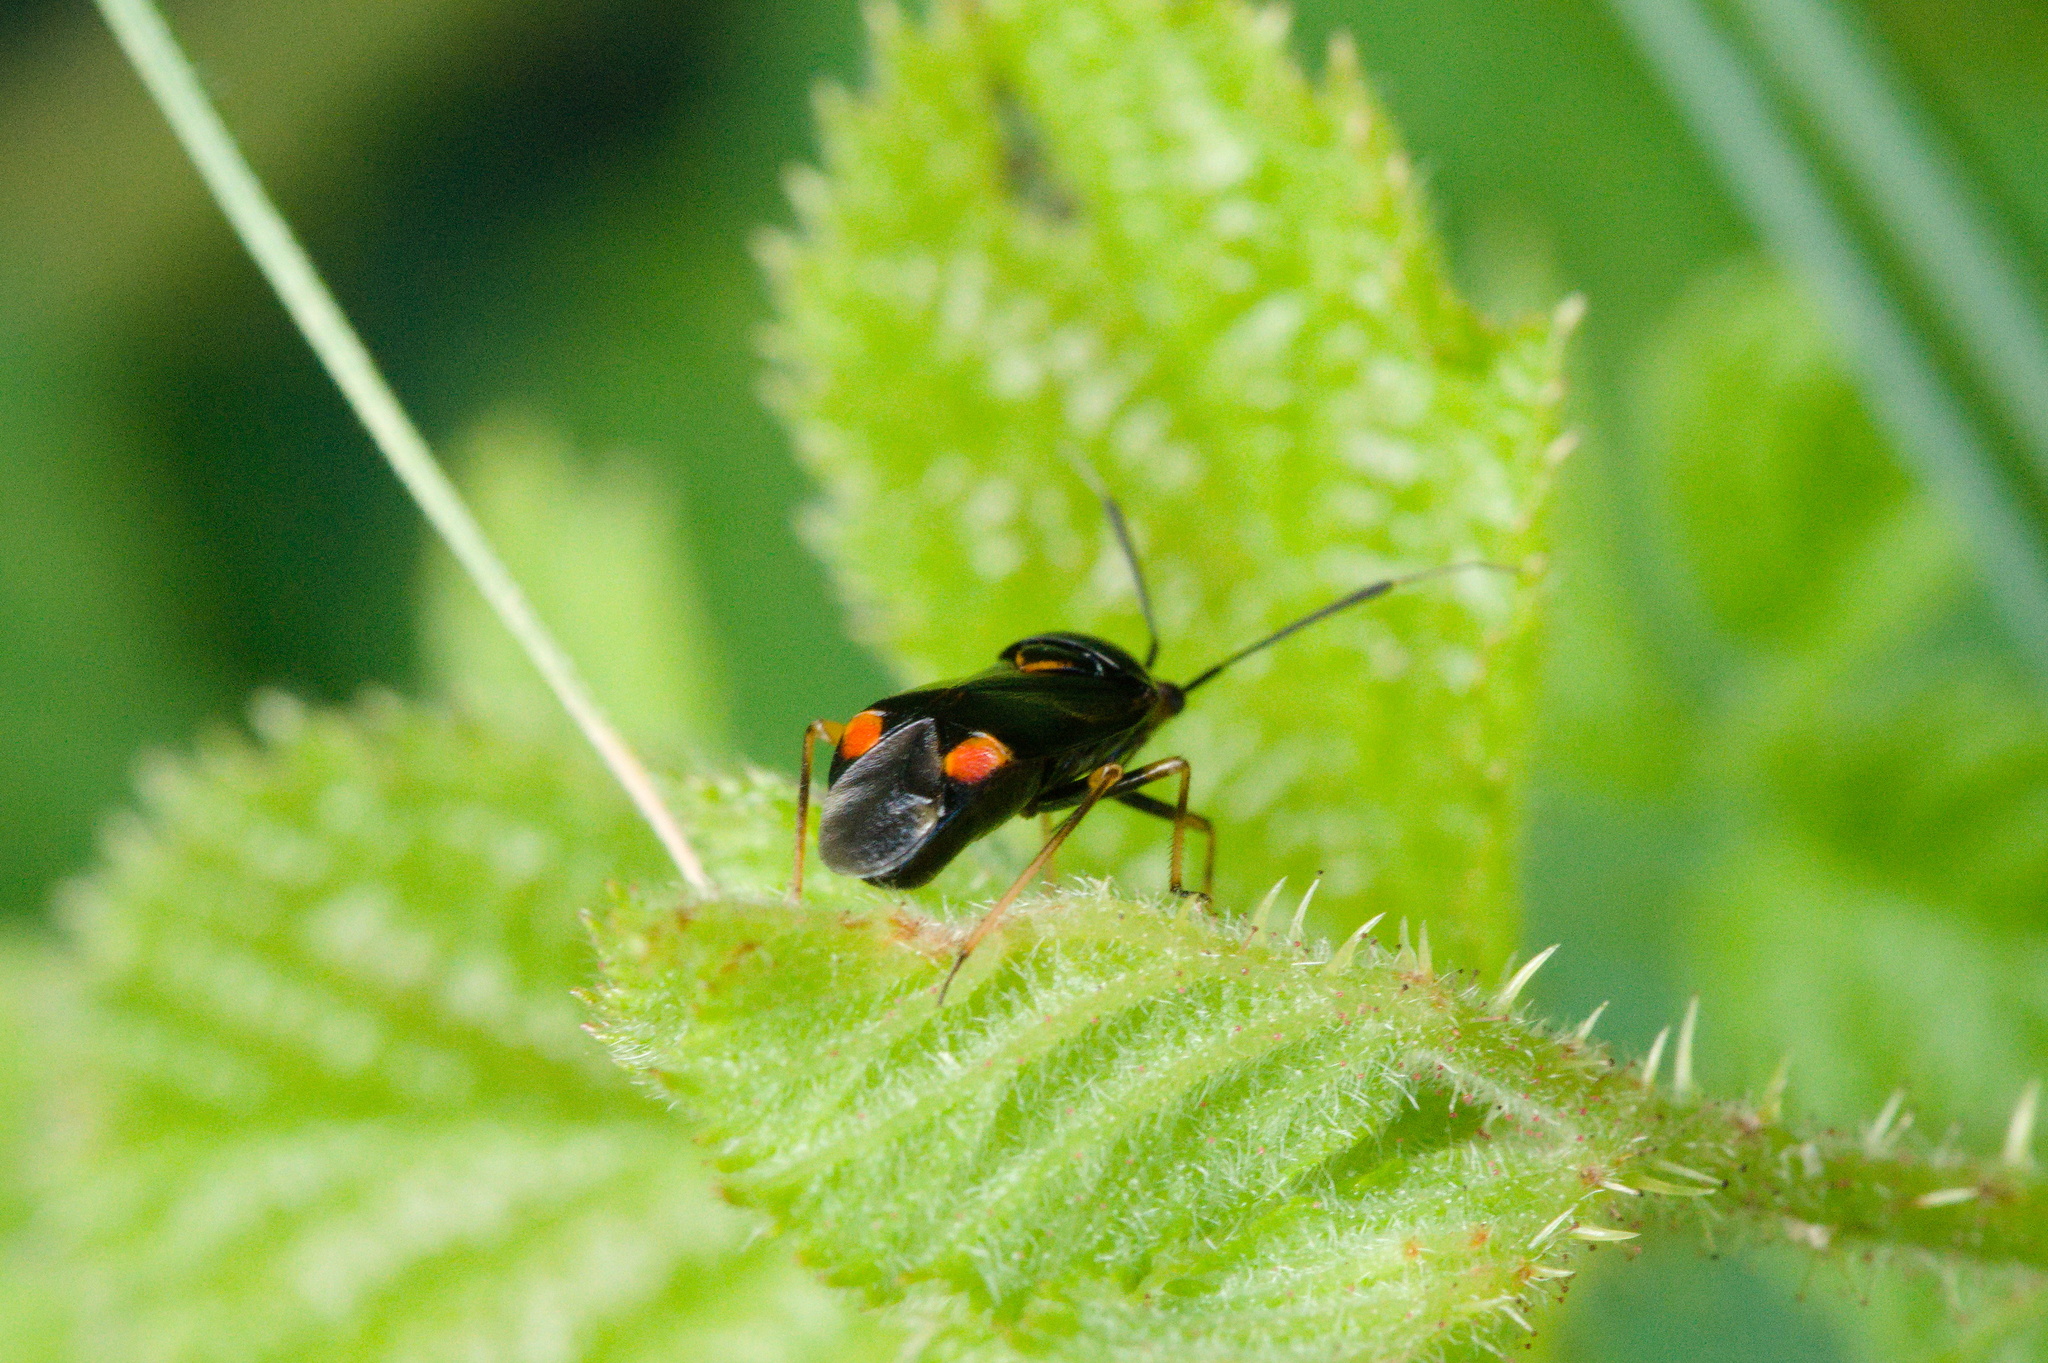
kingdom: Animalia
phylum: Arthropoda
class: Insecta
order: Hemiptera
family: Miridae
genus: Deraeocoris
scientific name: Deraeocoris ruber
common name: Plant bug
